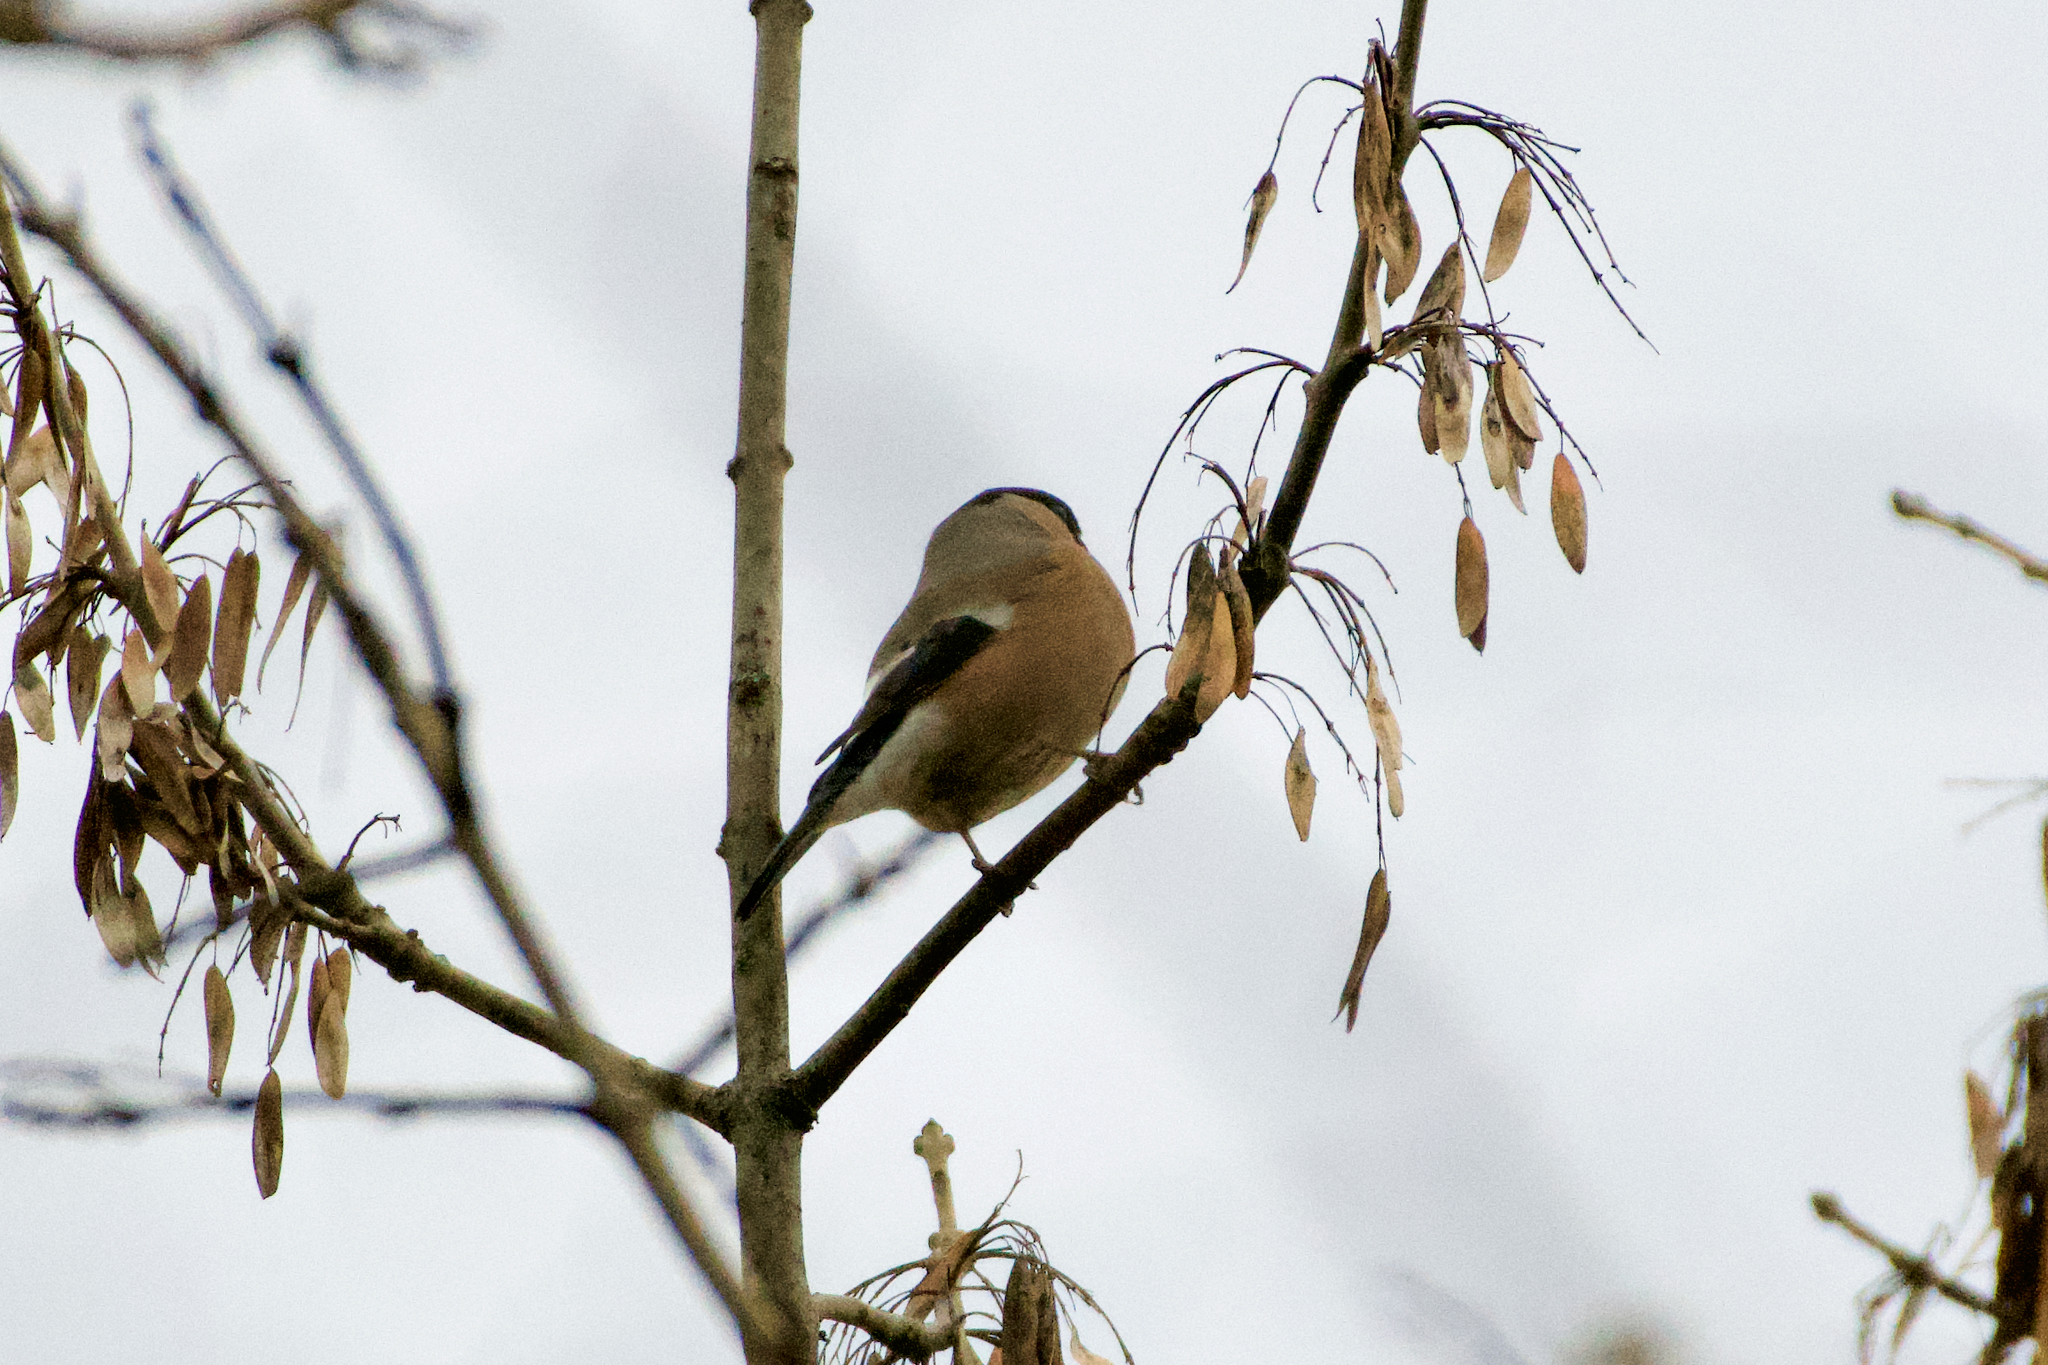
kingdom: Animalia
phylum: Chordata
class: Aves
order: Passeriformes
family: Fringillidae
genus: Pyrrhula
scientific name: Pyrrhula pyrrhula
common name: Eurasian bullfinch
